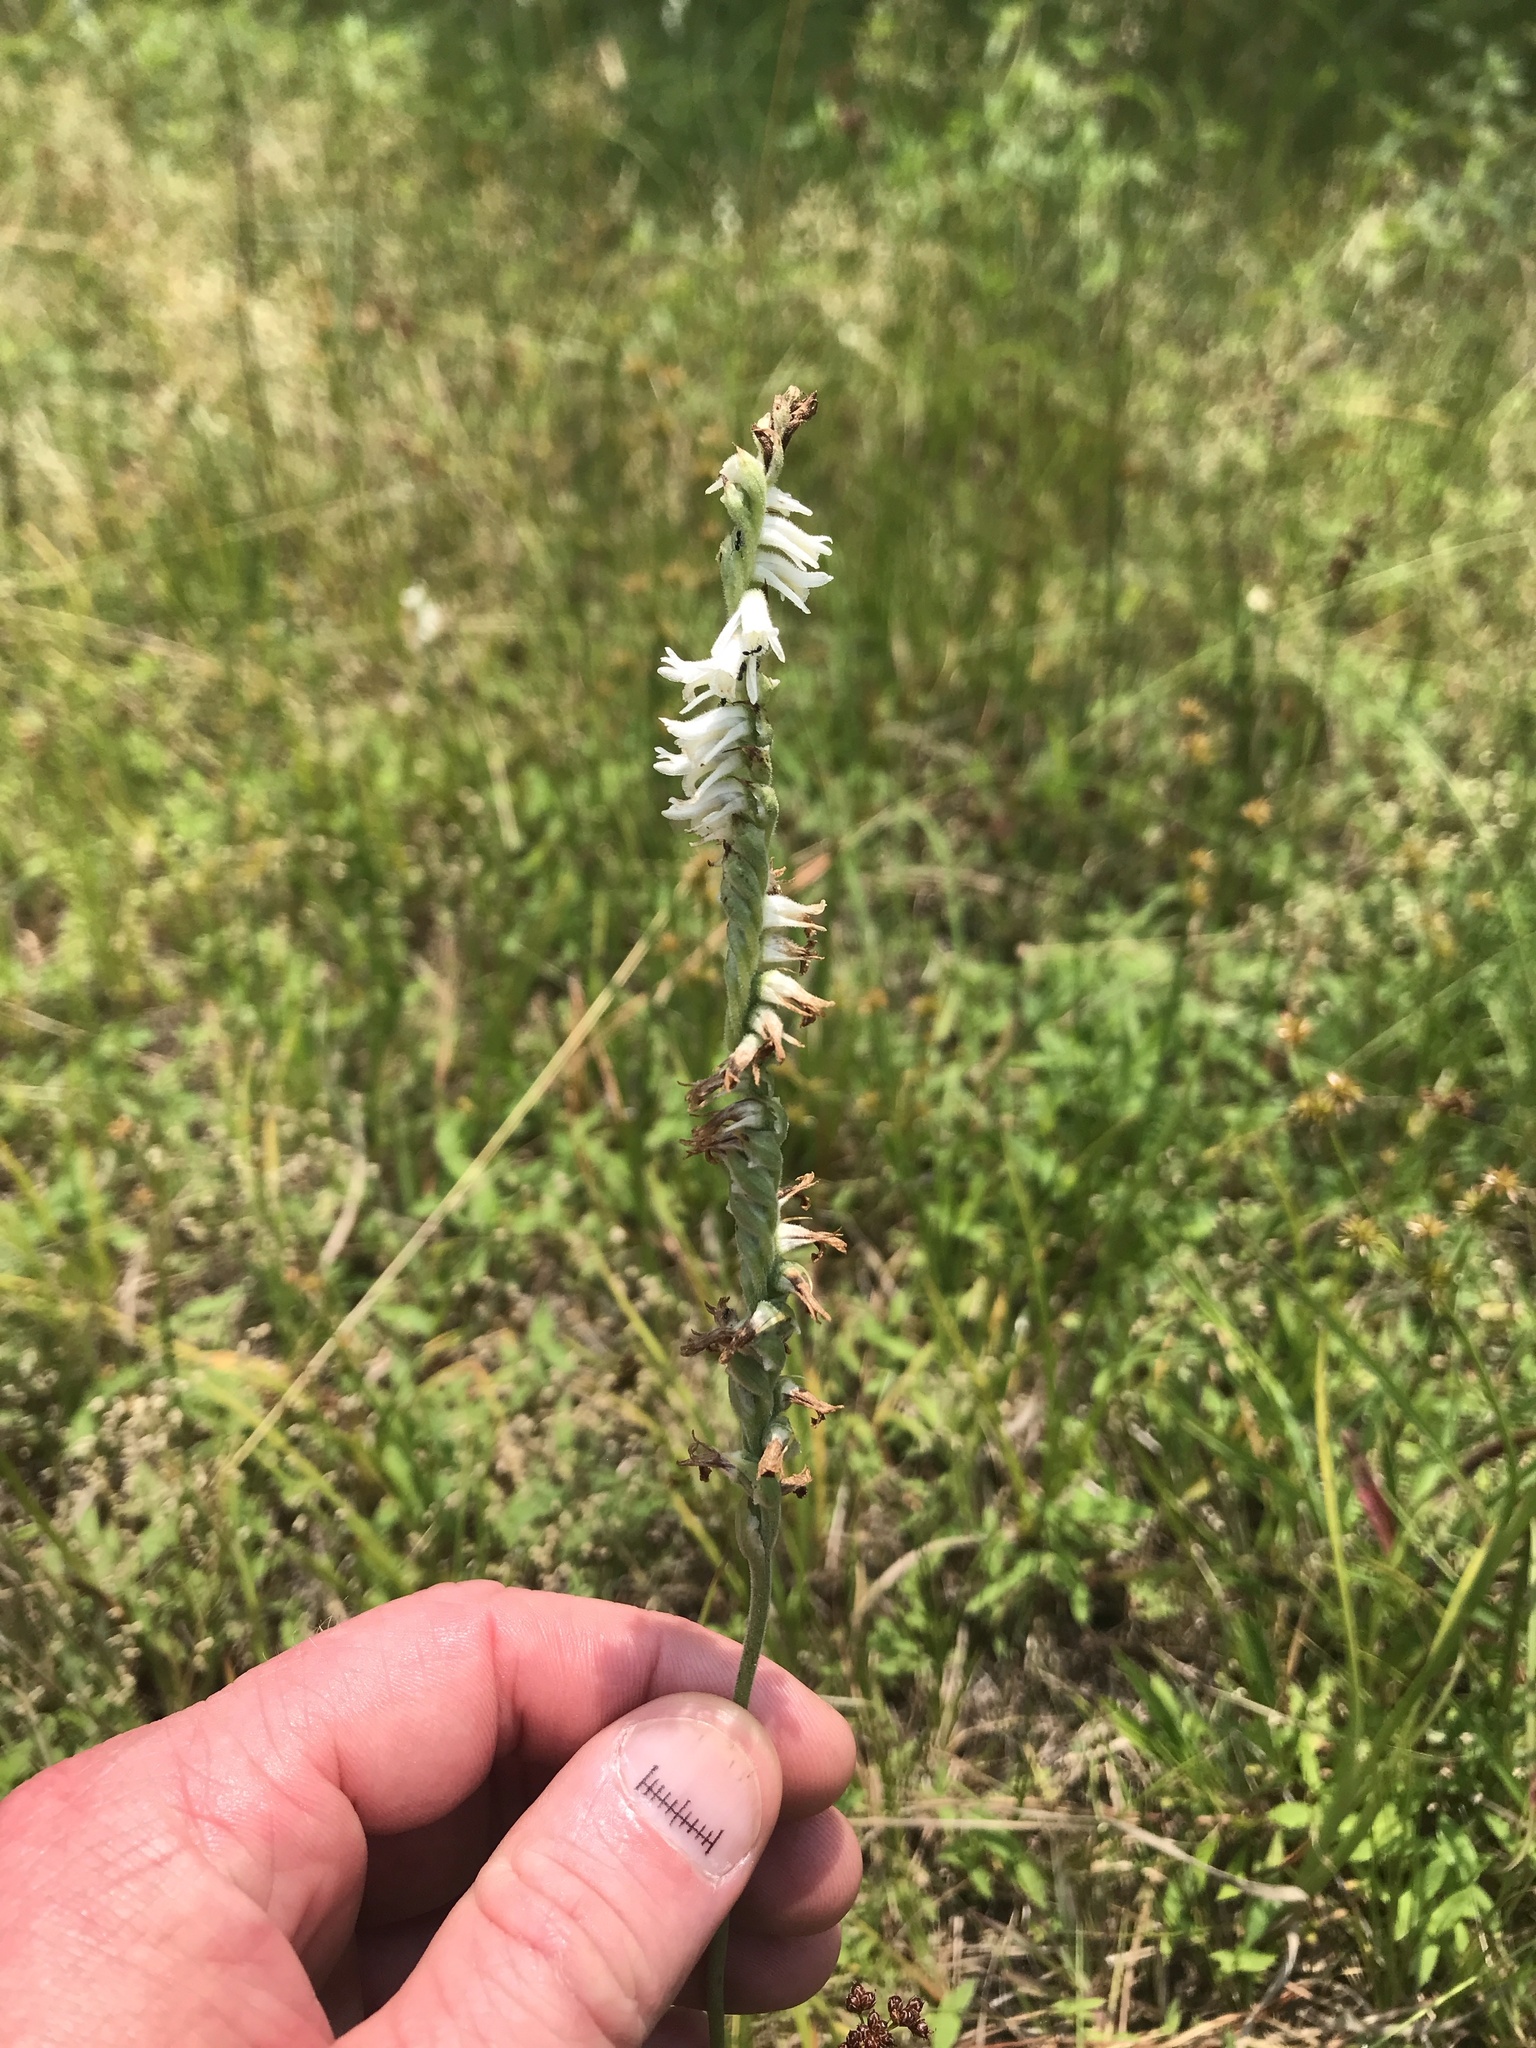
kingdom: Plantae
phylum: Tracheophyta
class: Liliopsida
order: Asparagales
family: Orchidaceae
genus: Spiranthes
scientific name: Spiranthes vernalis
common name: Spring ladies'-tresses
